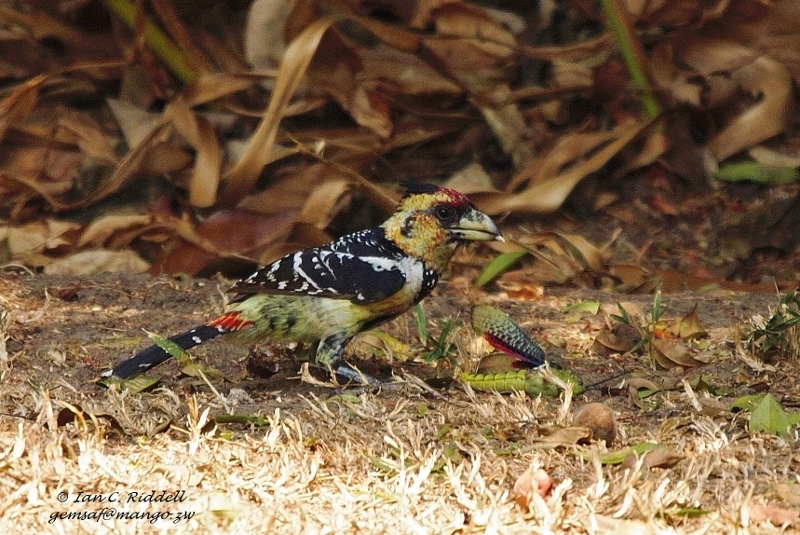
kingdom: Animalia
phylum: Chordata
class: Aves
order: Piciformes
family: Lybiidae
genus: Trachyphonus
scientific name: Trachyphonus vaillantii
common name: Crested barbet
